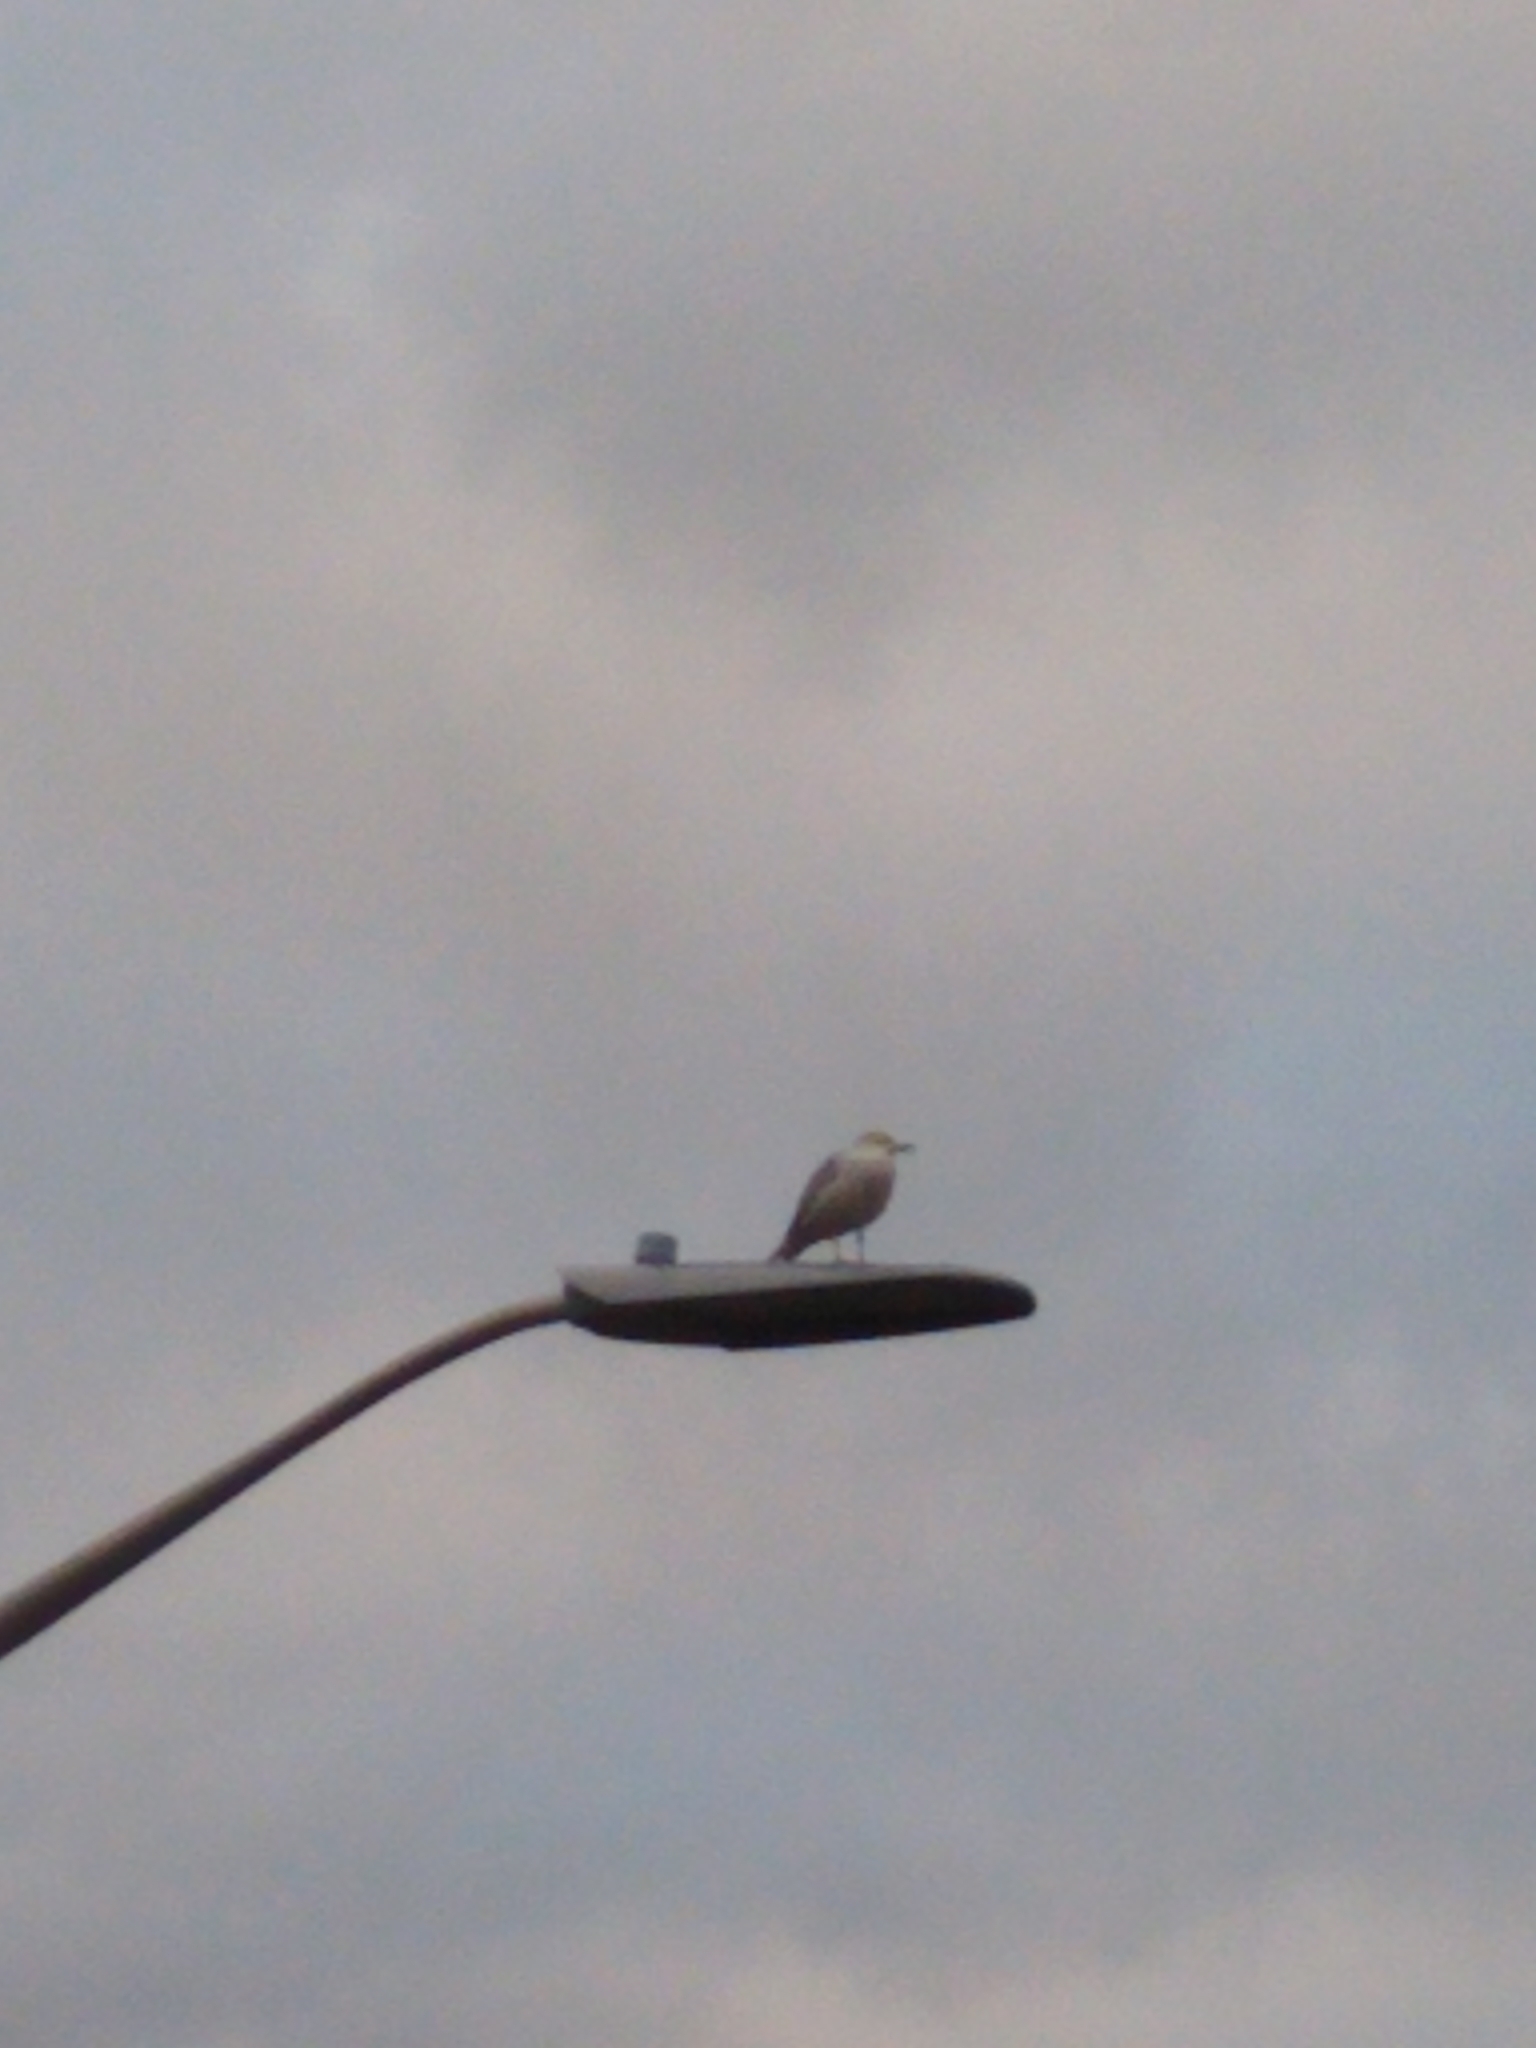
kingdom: Animalia
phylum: Chordata
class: Aves
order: Charadriiformes
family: Laridae
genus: Larus
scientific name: Larus delawarensis
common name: Ring-billed gull
